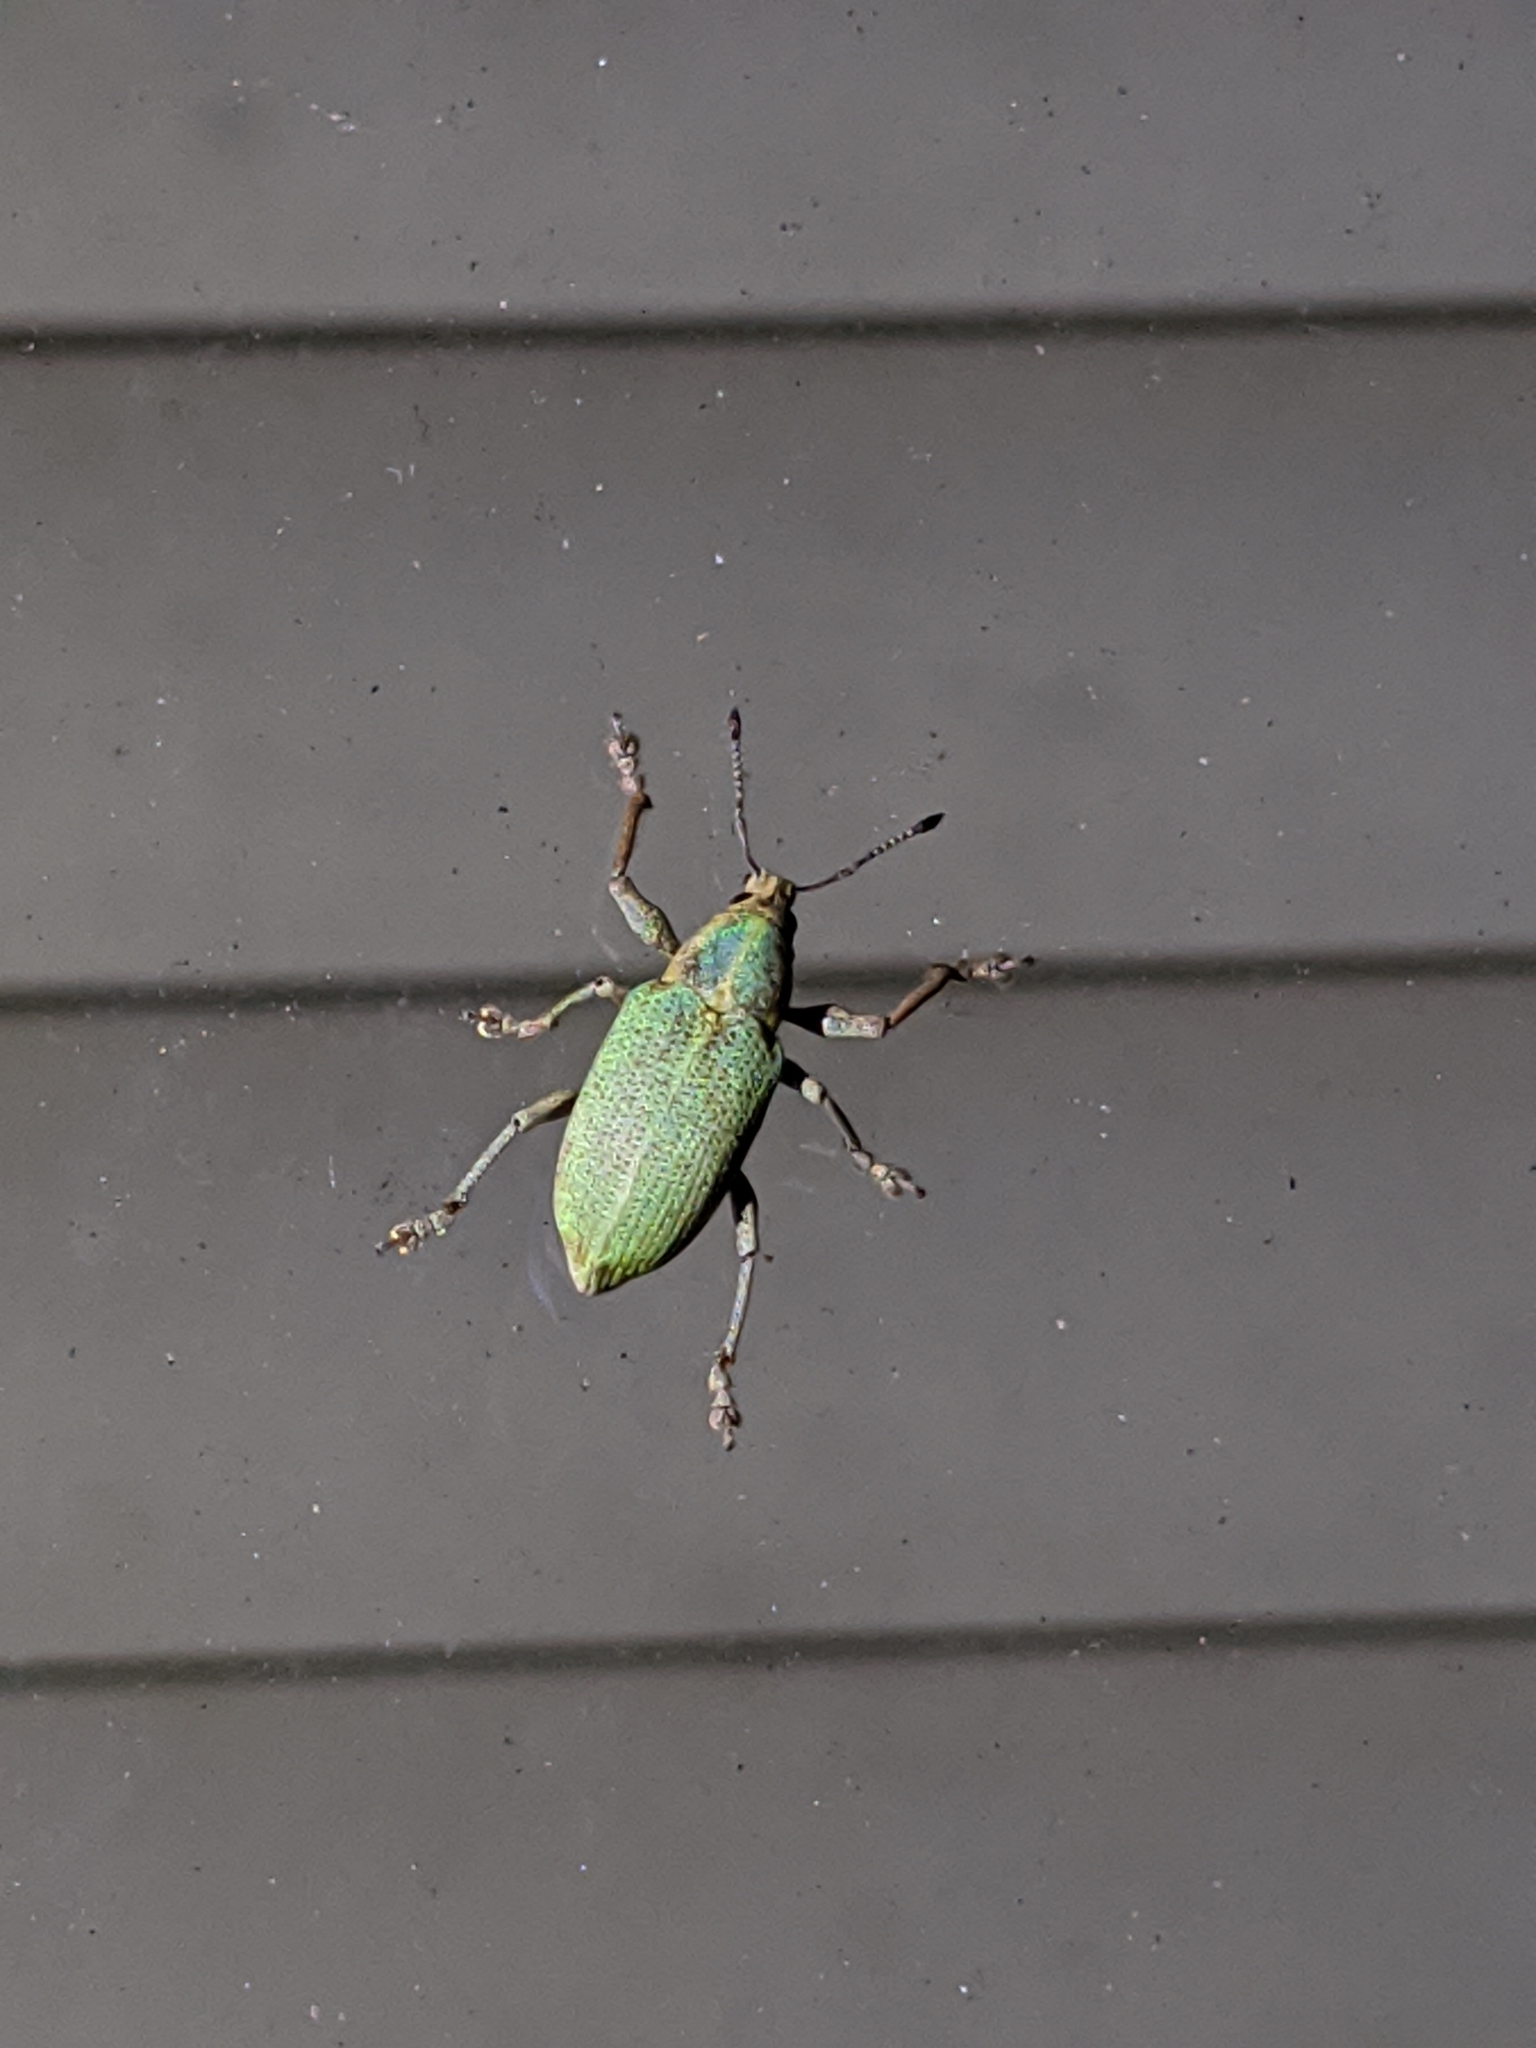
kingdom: Animalia
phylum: Arthropoda
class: Insecta
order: Coleoptera
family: Curculionidae
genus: Pachnaeus
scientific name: Pachnaeus litus
